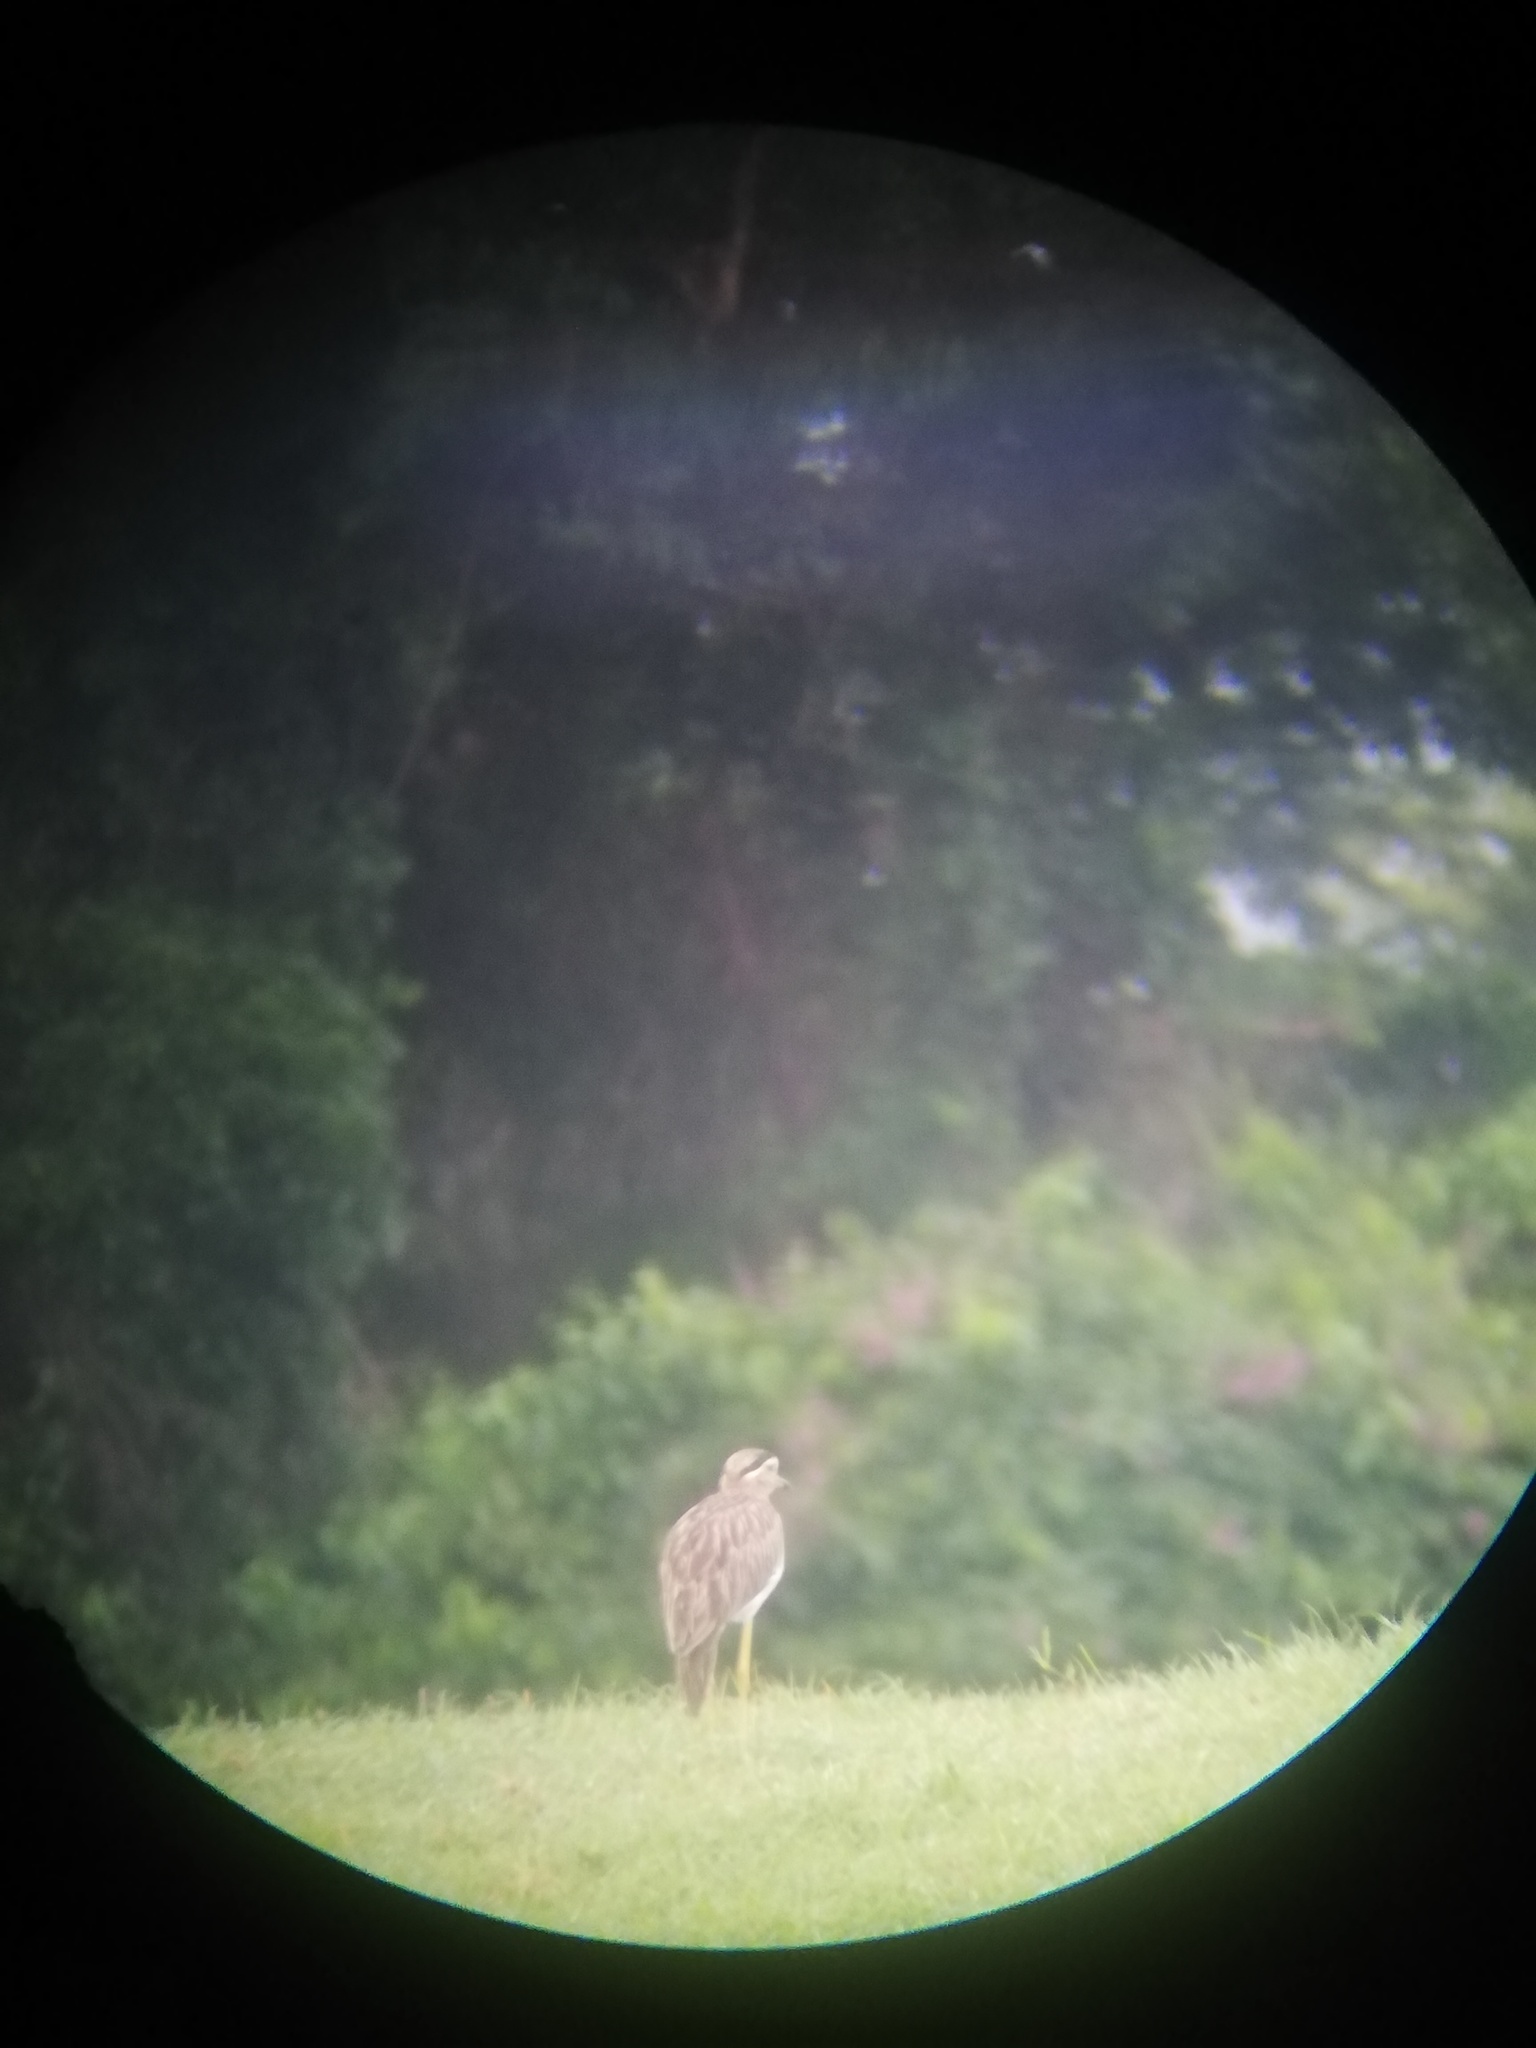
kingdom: Animalia
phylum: Chordata
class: Aves
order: Charadriiformes
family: Burhinidae
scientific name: Burhinidae
